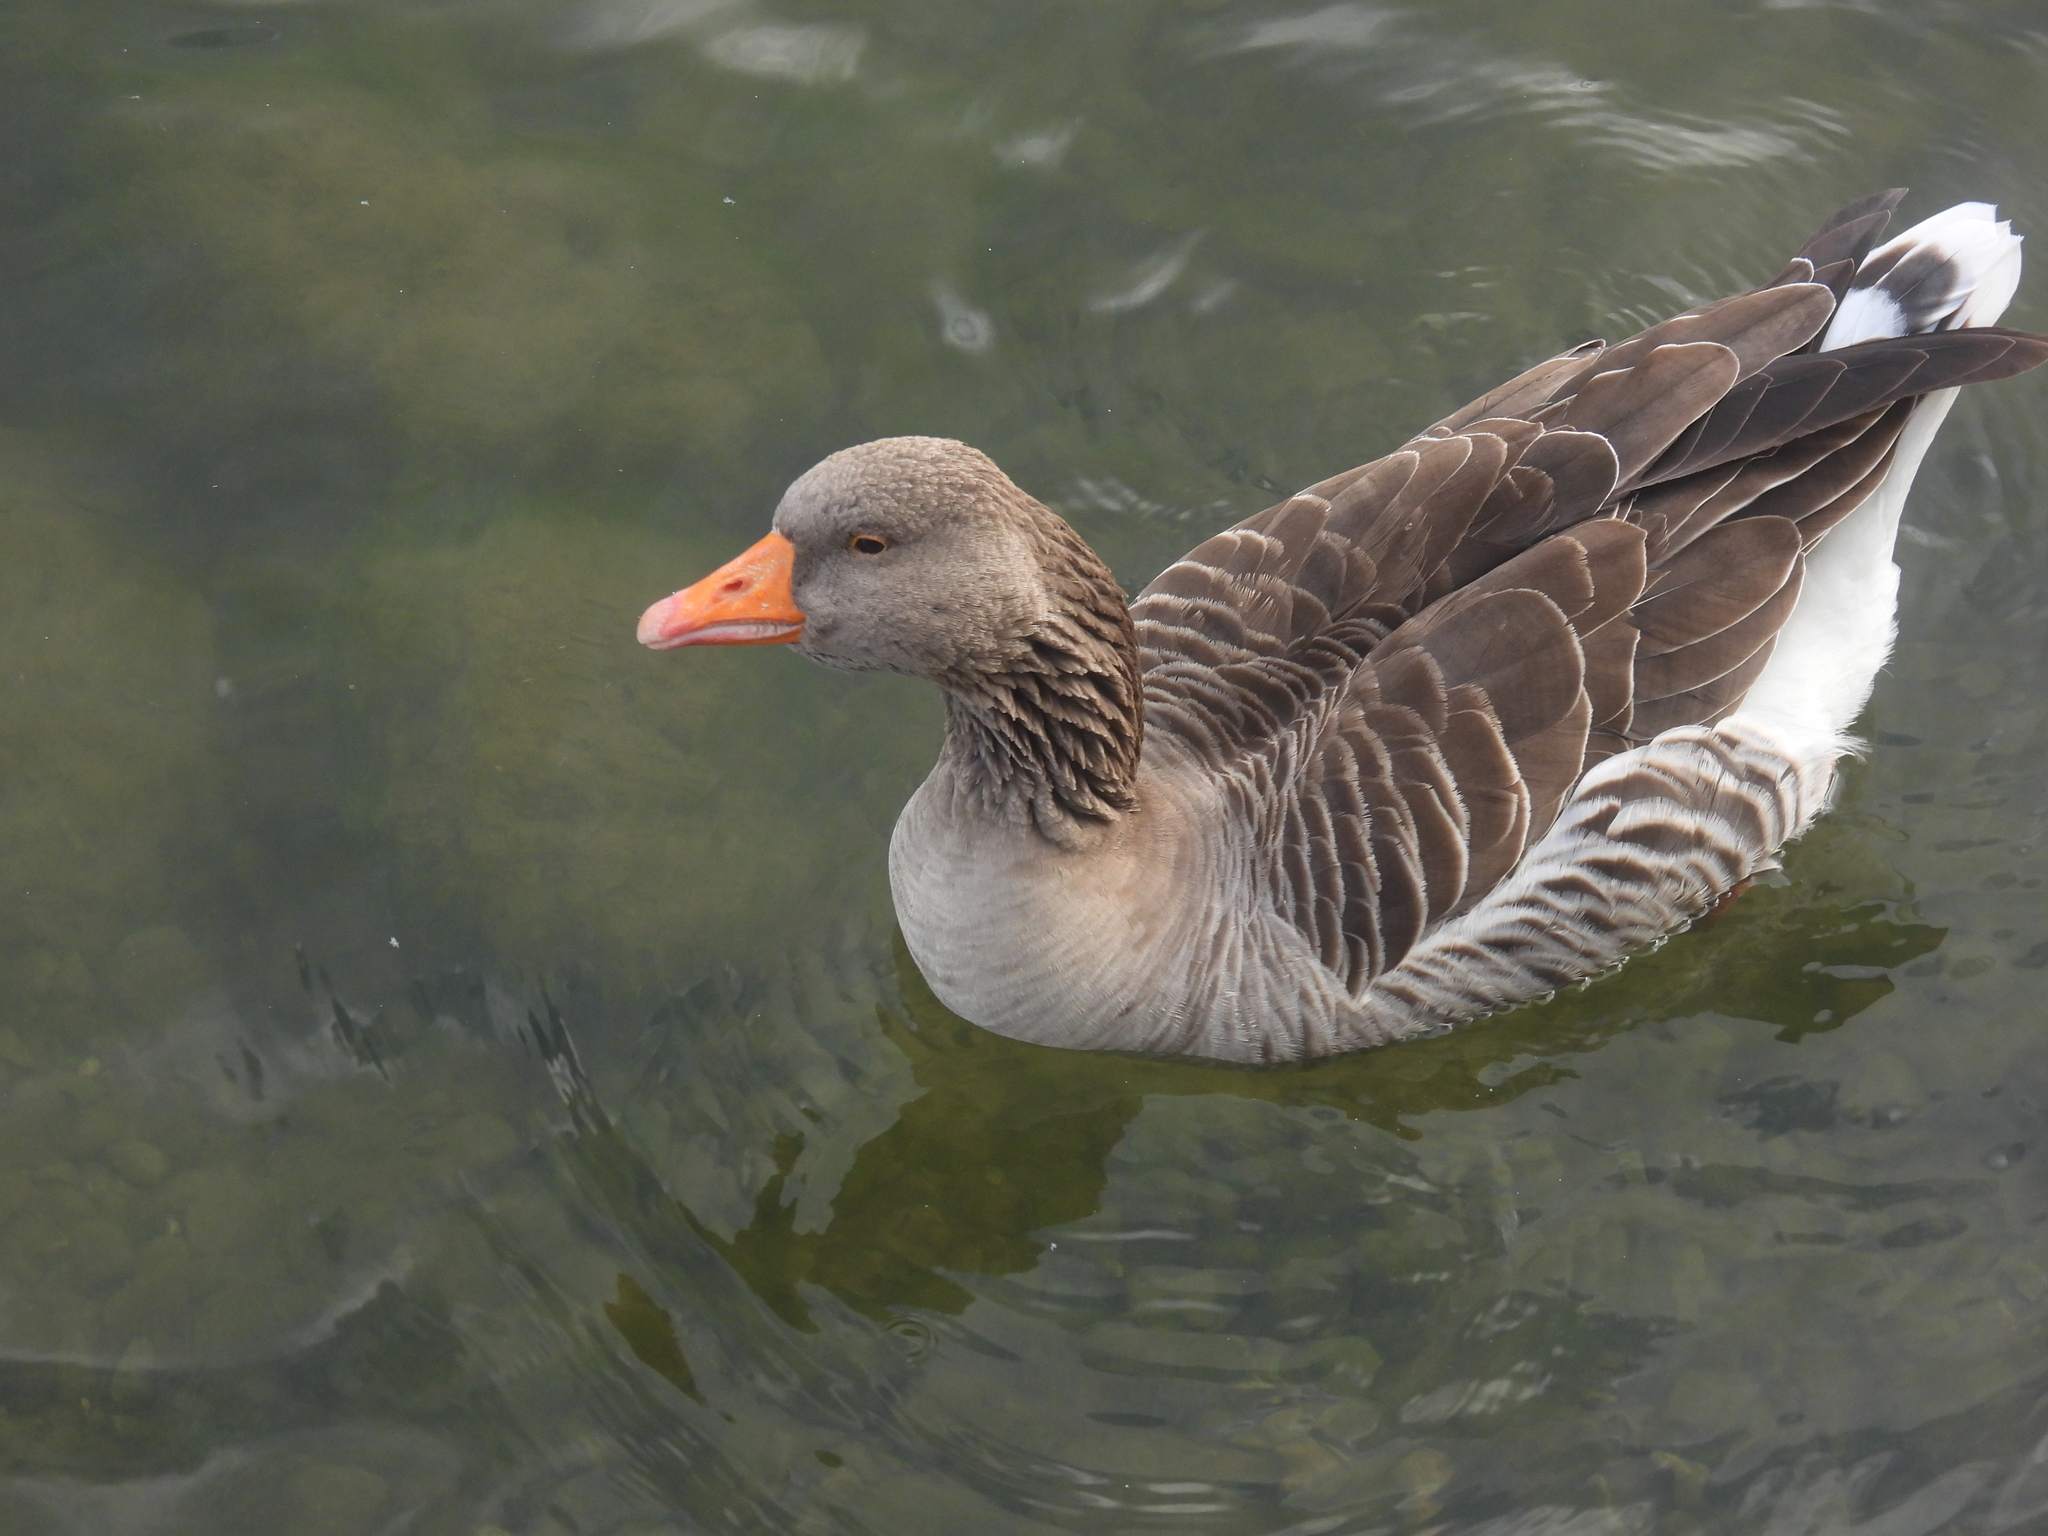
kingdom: Animalia
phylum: Chordata
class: Aves
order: Anseriformes
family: Anatidae
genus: Anser
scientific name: Anser anser
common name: Greylag goose
